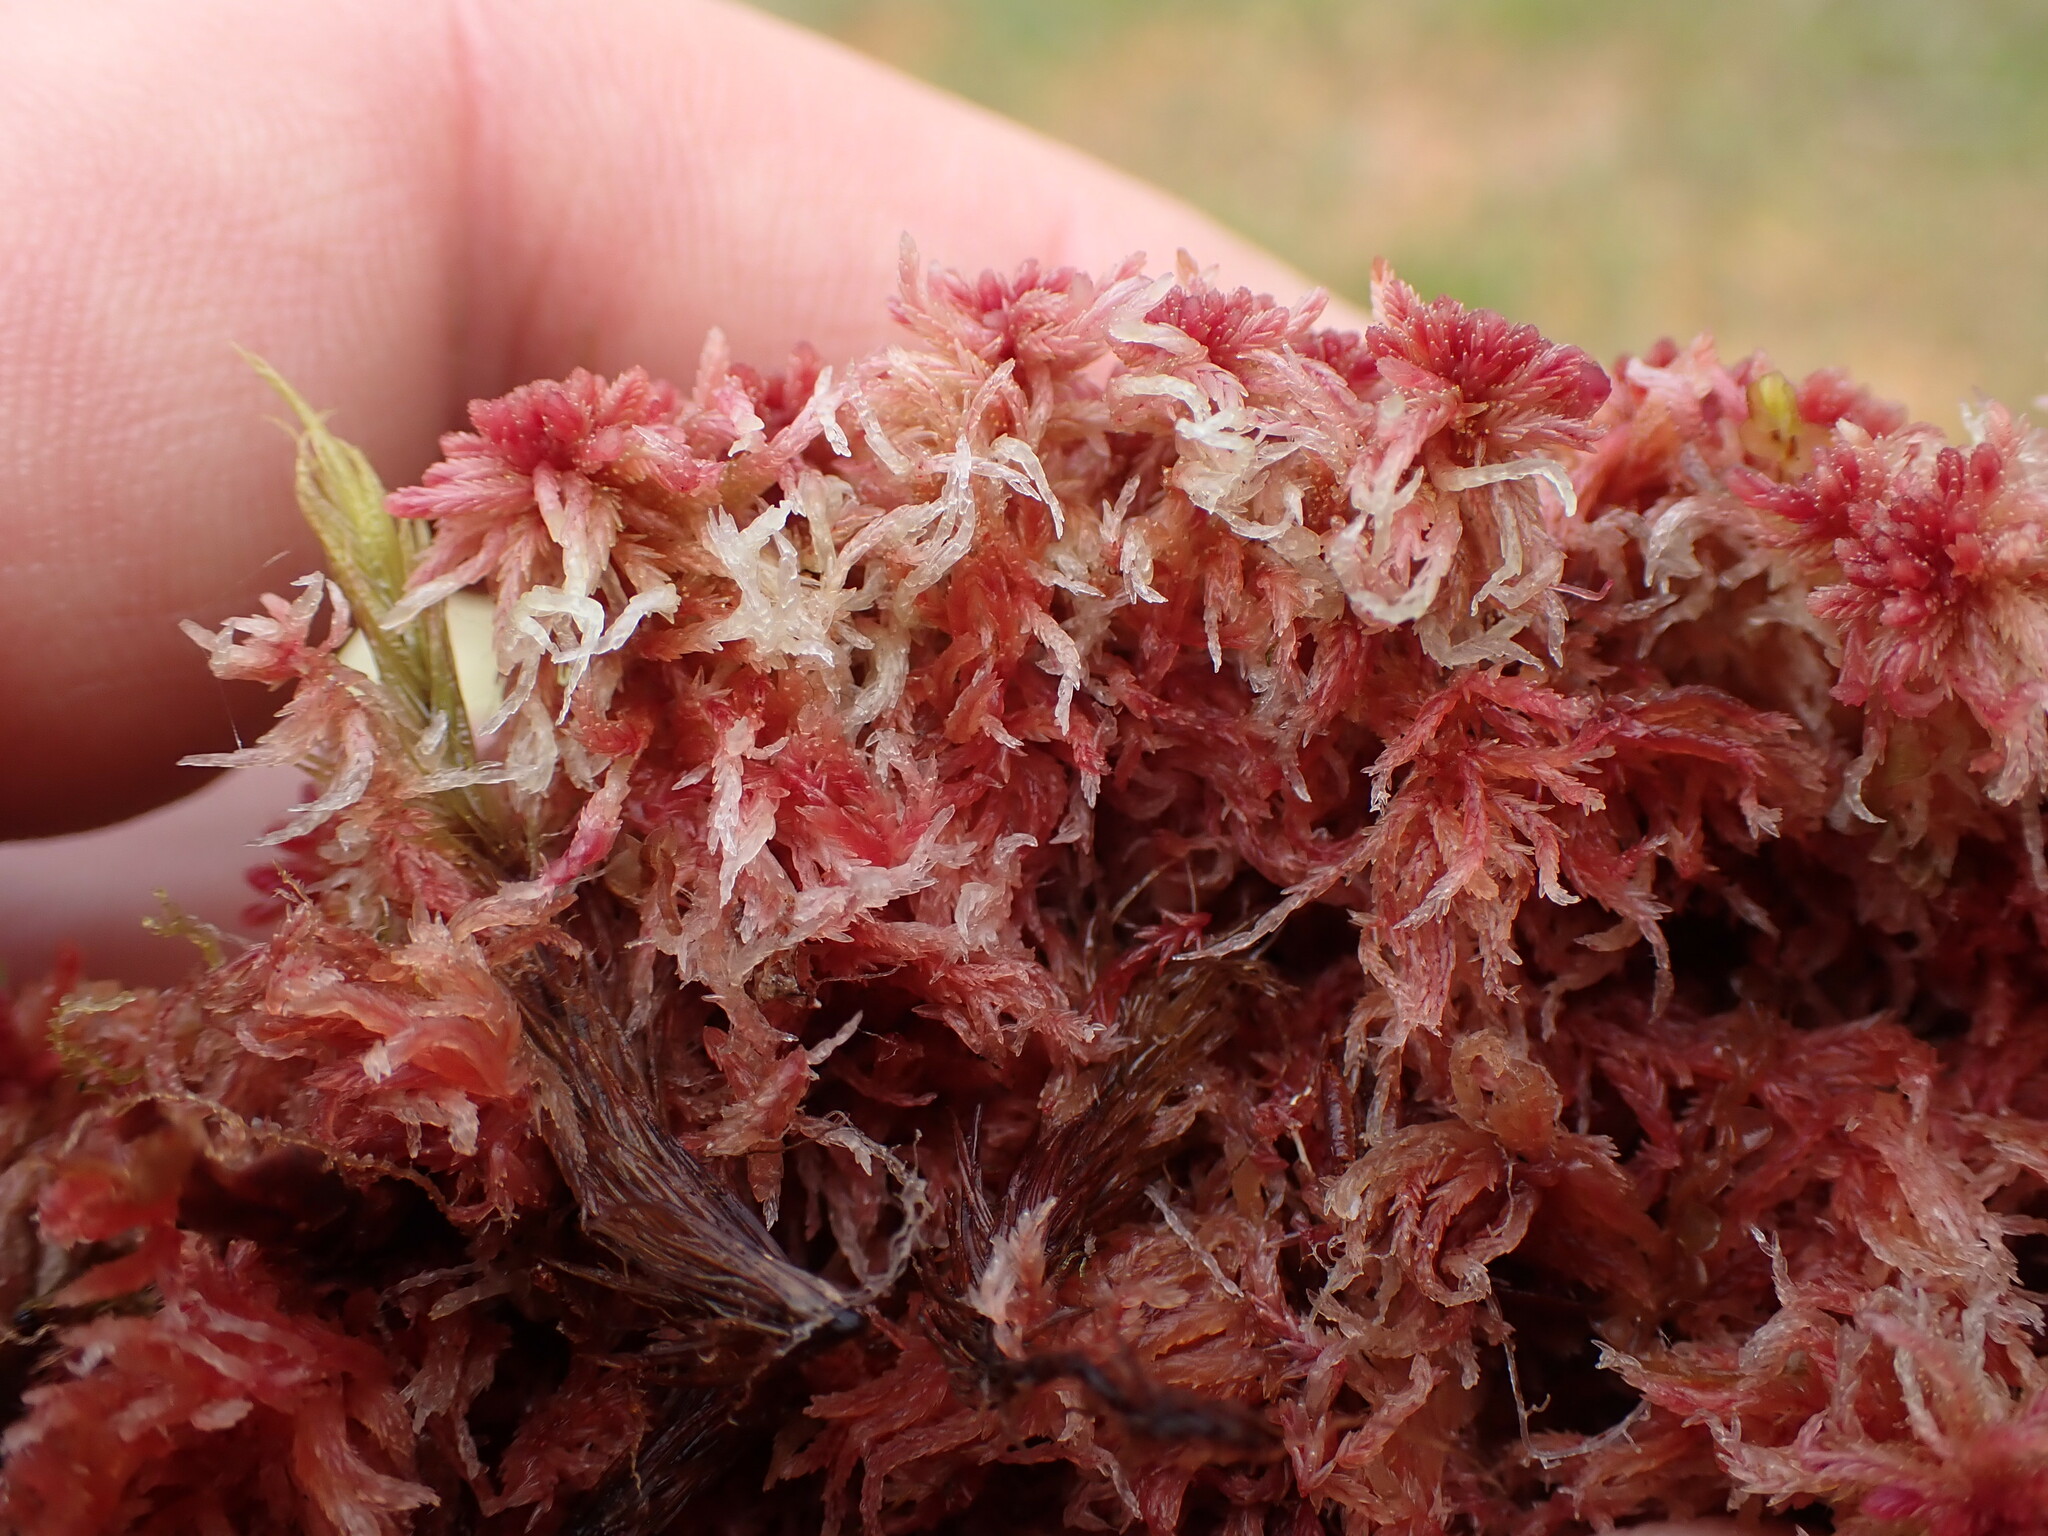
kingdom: Plantae
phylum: Bryophyta
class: Sphagnopsida
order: Sphagnales
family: Sphagnaceae
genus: Sphagnum
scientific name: Sphagnum rubellum
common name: Red peat moss
